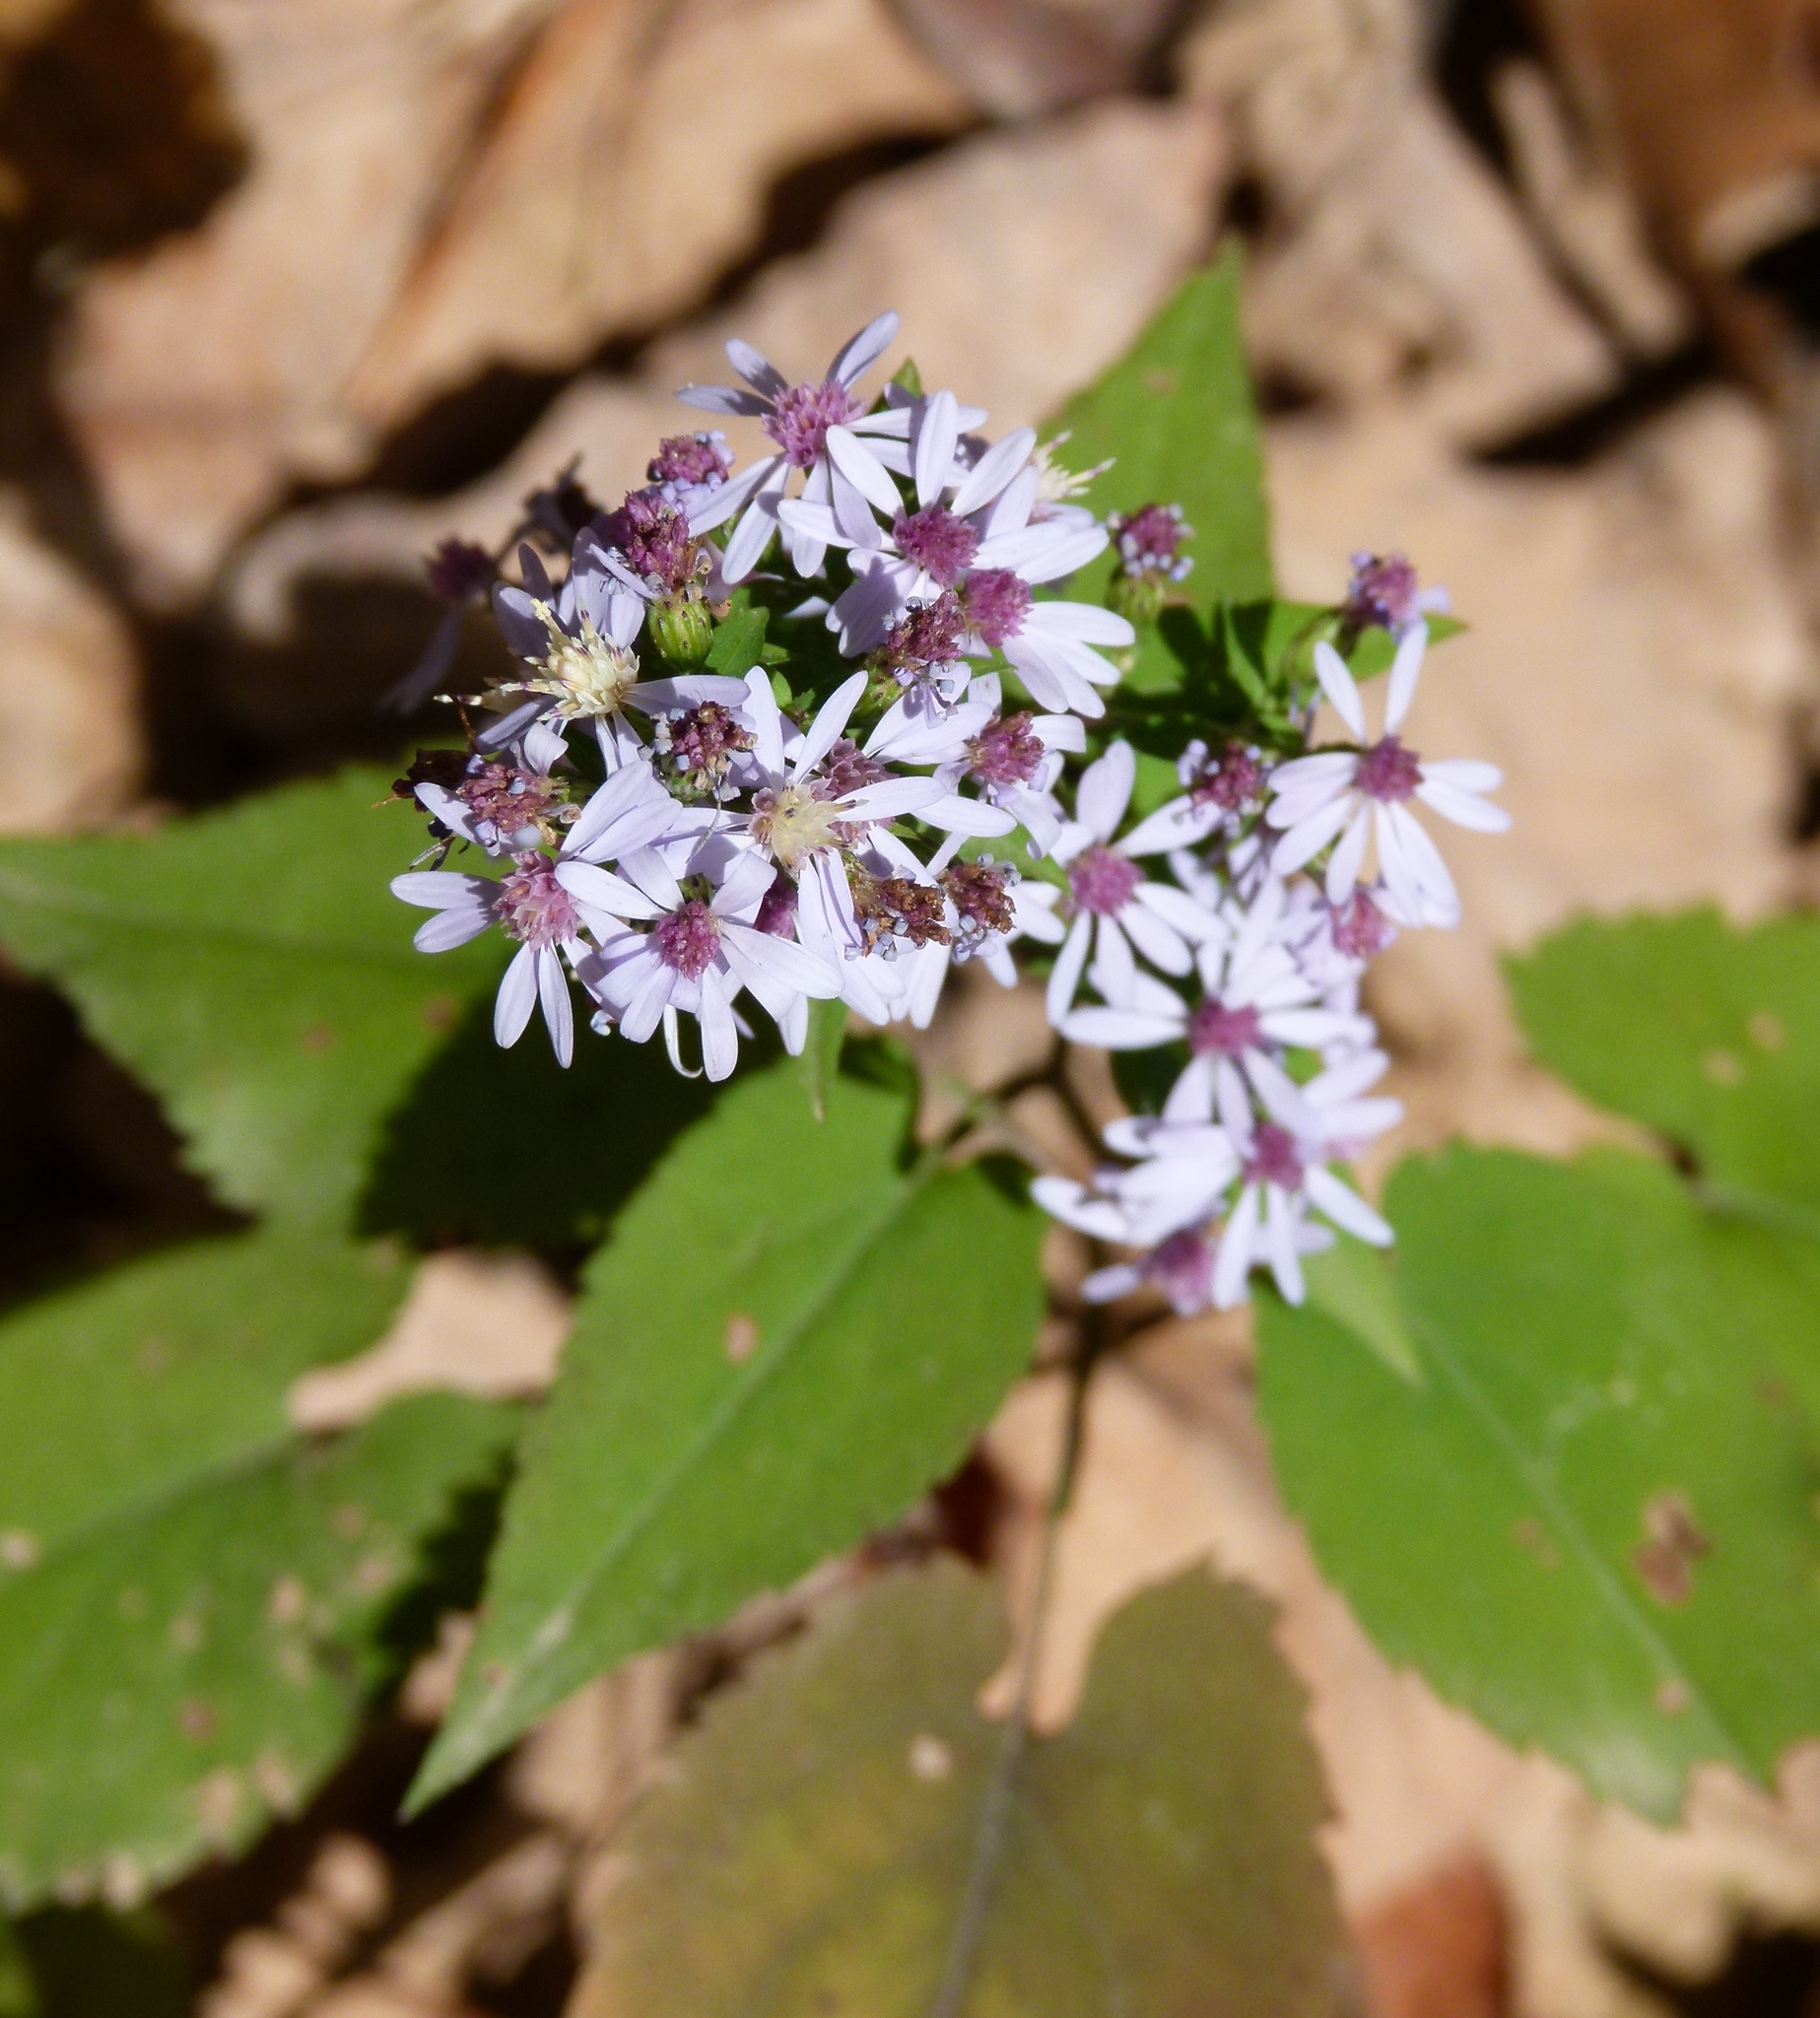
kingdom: Plantae
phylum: Tracheophyta
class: Magnoliopsida
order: Asterales
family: Asteraceae
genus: Symphyotrichum
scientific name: Symphyotrichum cordifolium
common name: Beeweed
